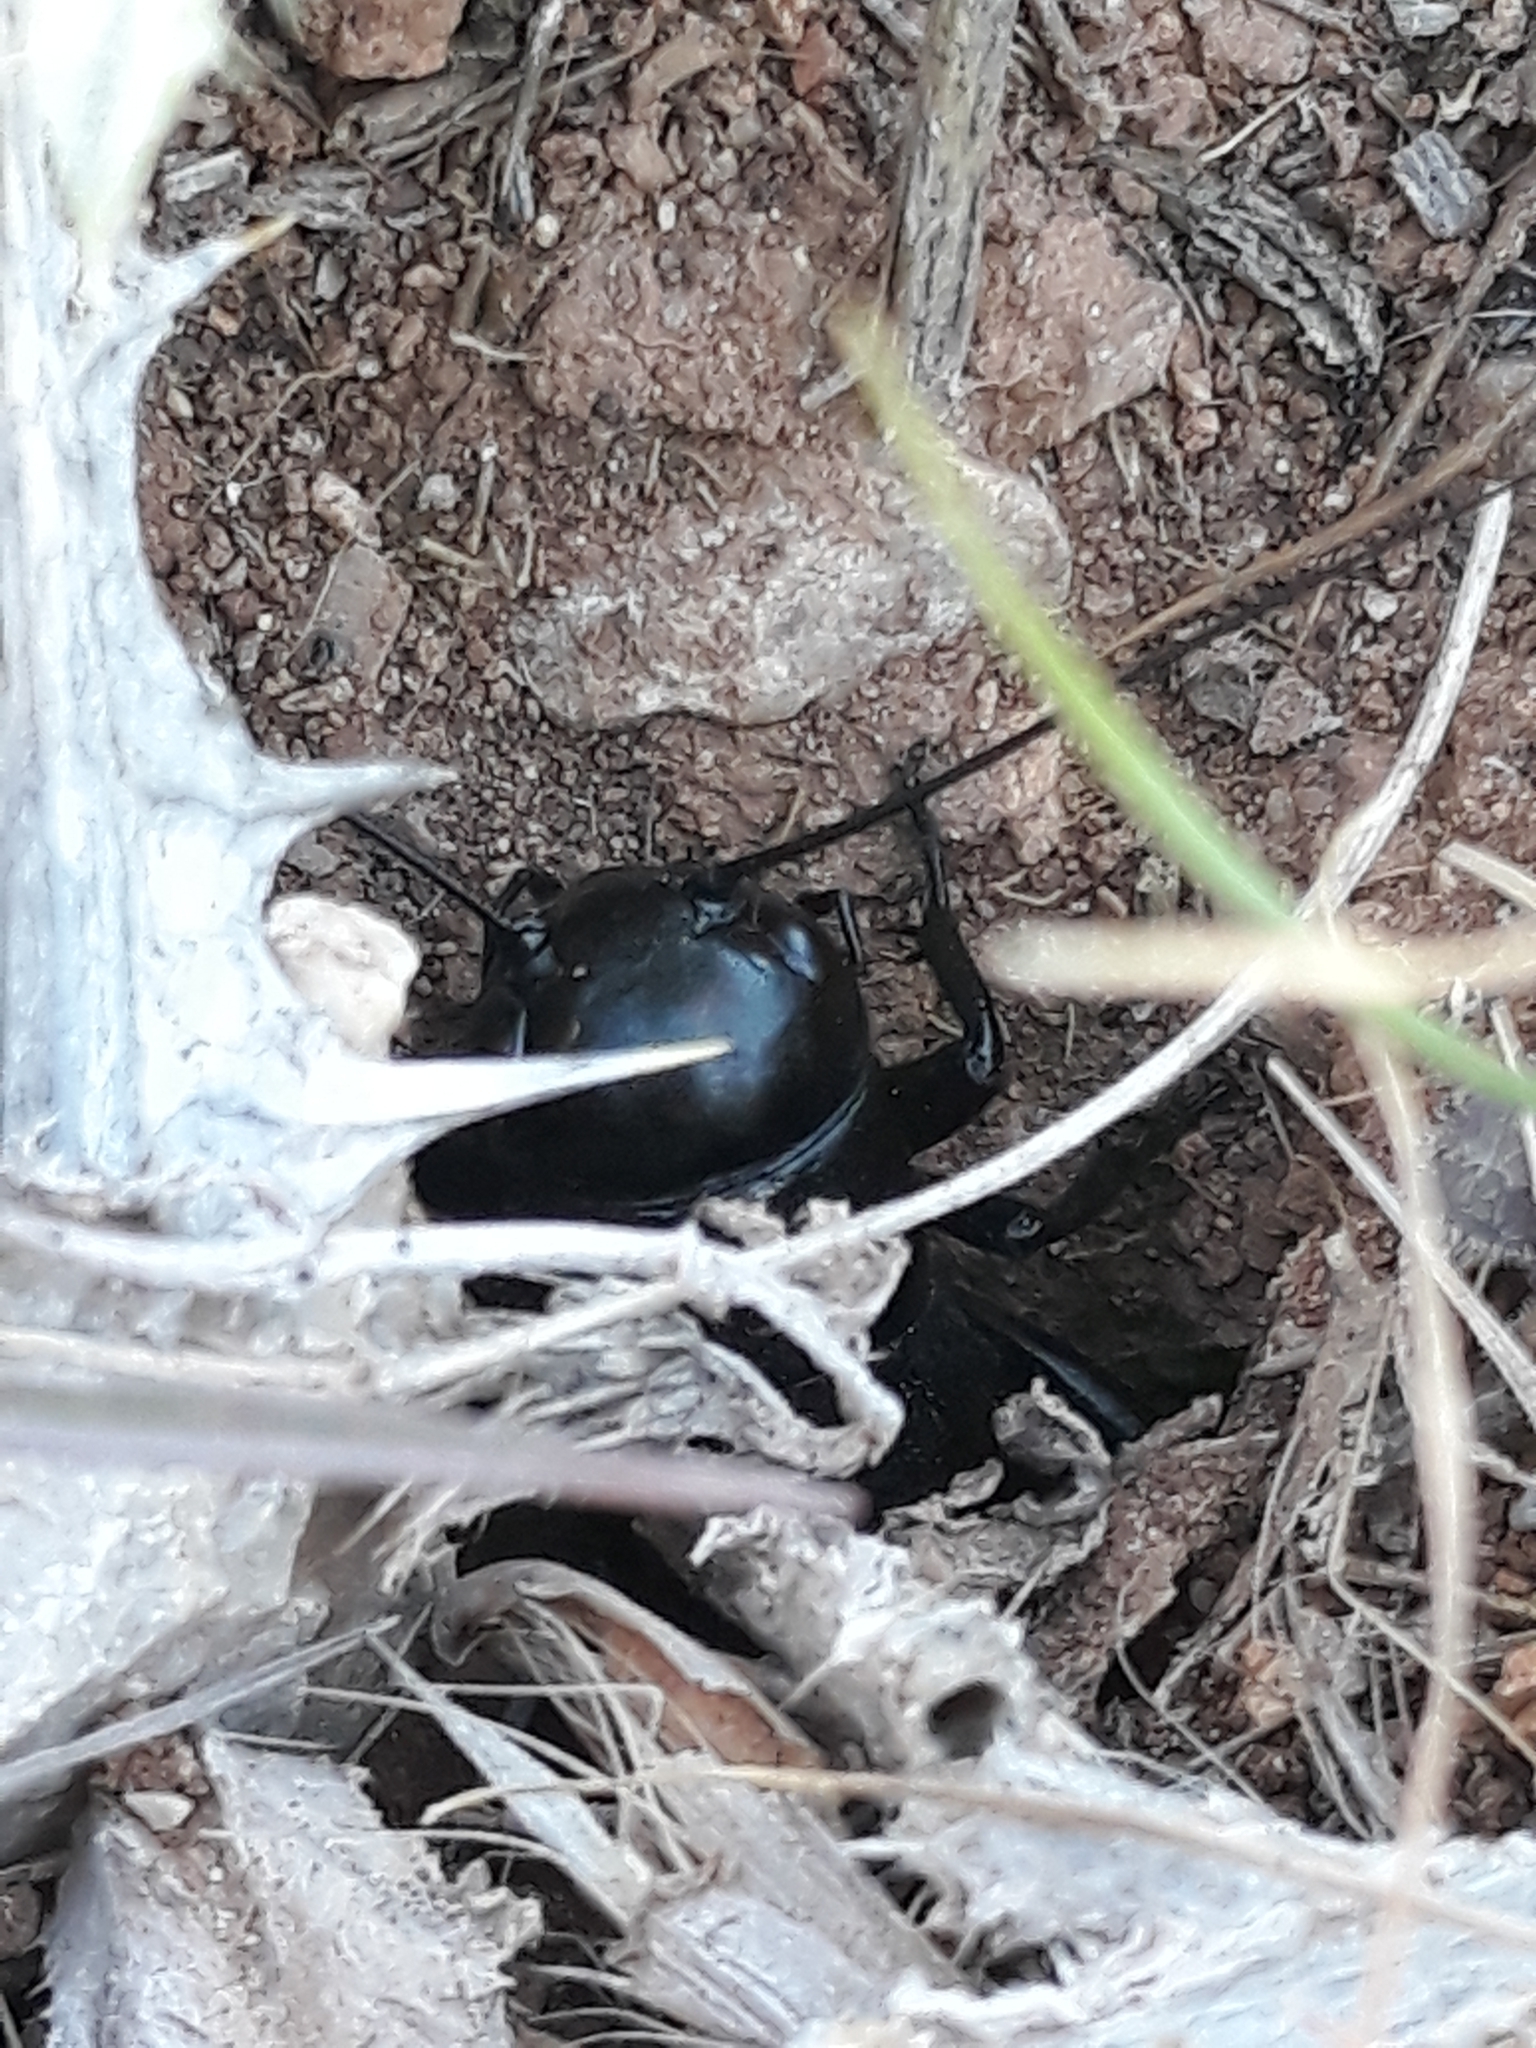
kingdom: Animalia
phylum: Arthropoda
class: Insecta
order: Orthoptera
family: Gryllidae
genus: Gryllus
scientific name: Gryllus campestris
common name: Field cricket
